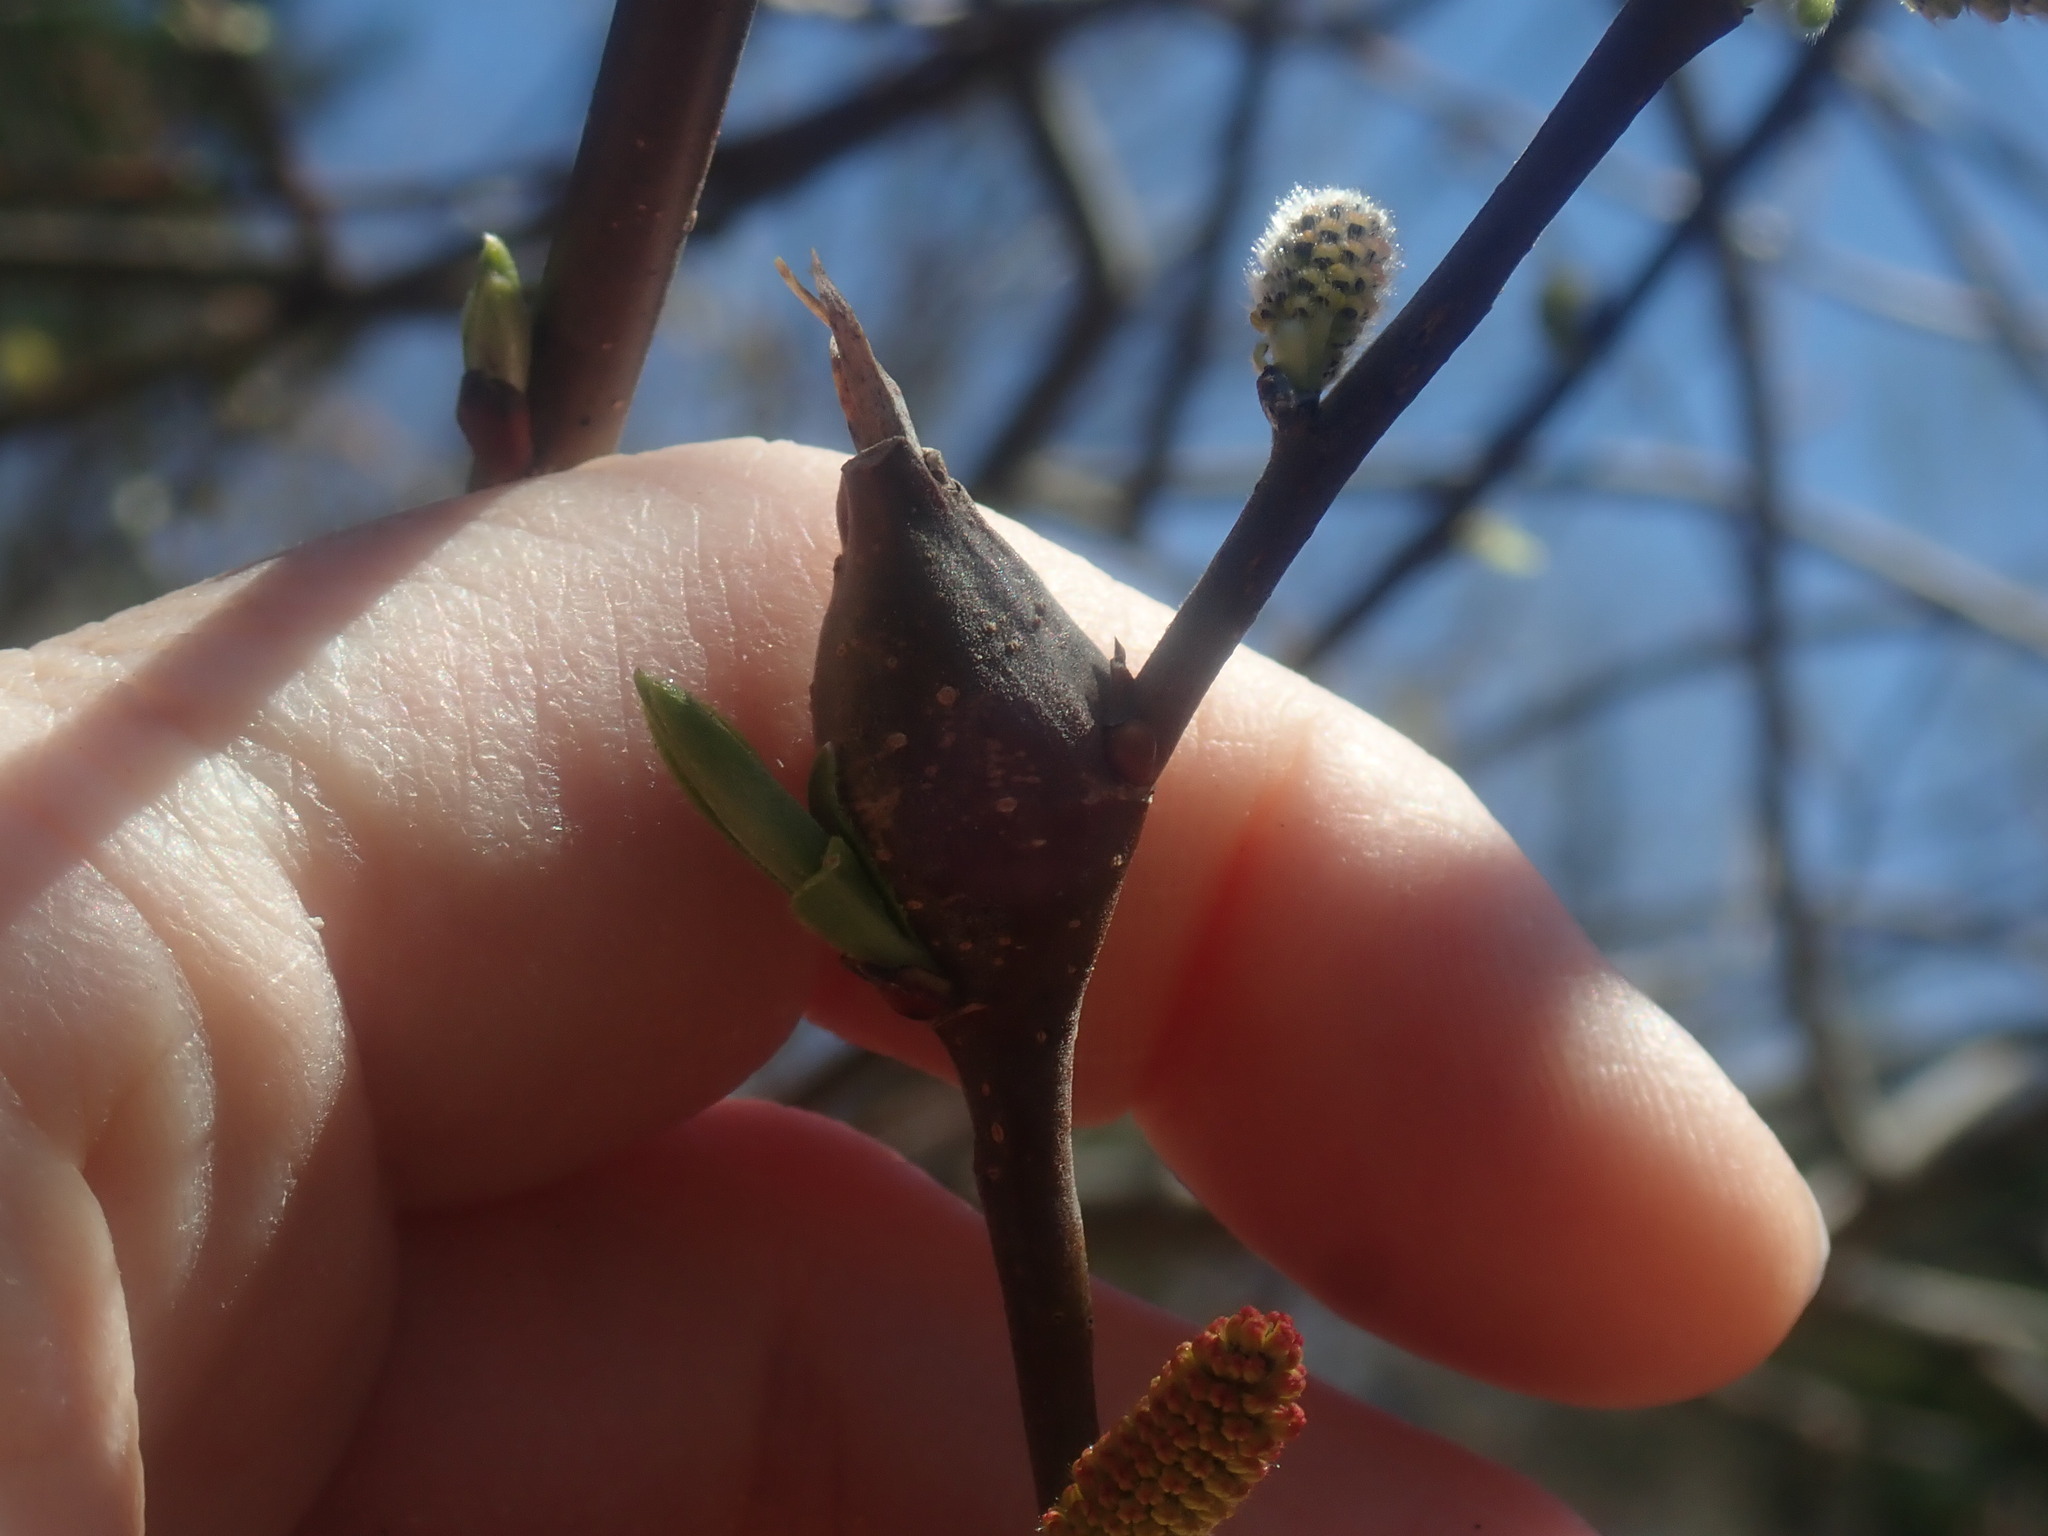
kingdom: Animalia
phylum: Arthropoda
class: Insecta
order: Diptera
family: Cecidomyiidae
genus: Thecodiplosis
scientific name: Thecodiplosis pinirigidae
